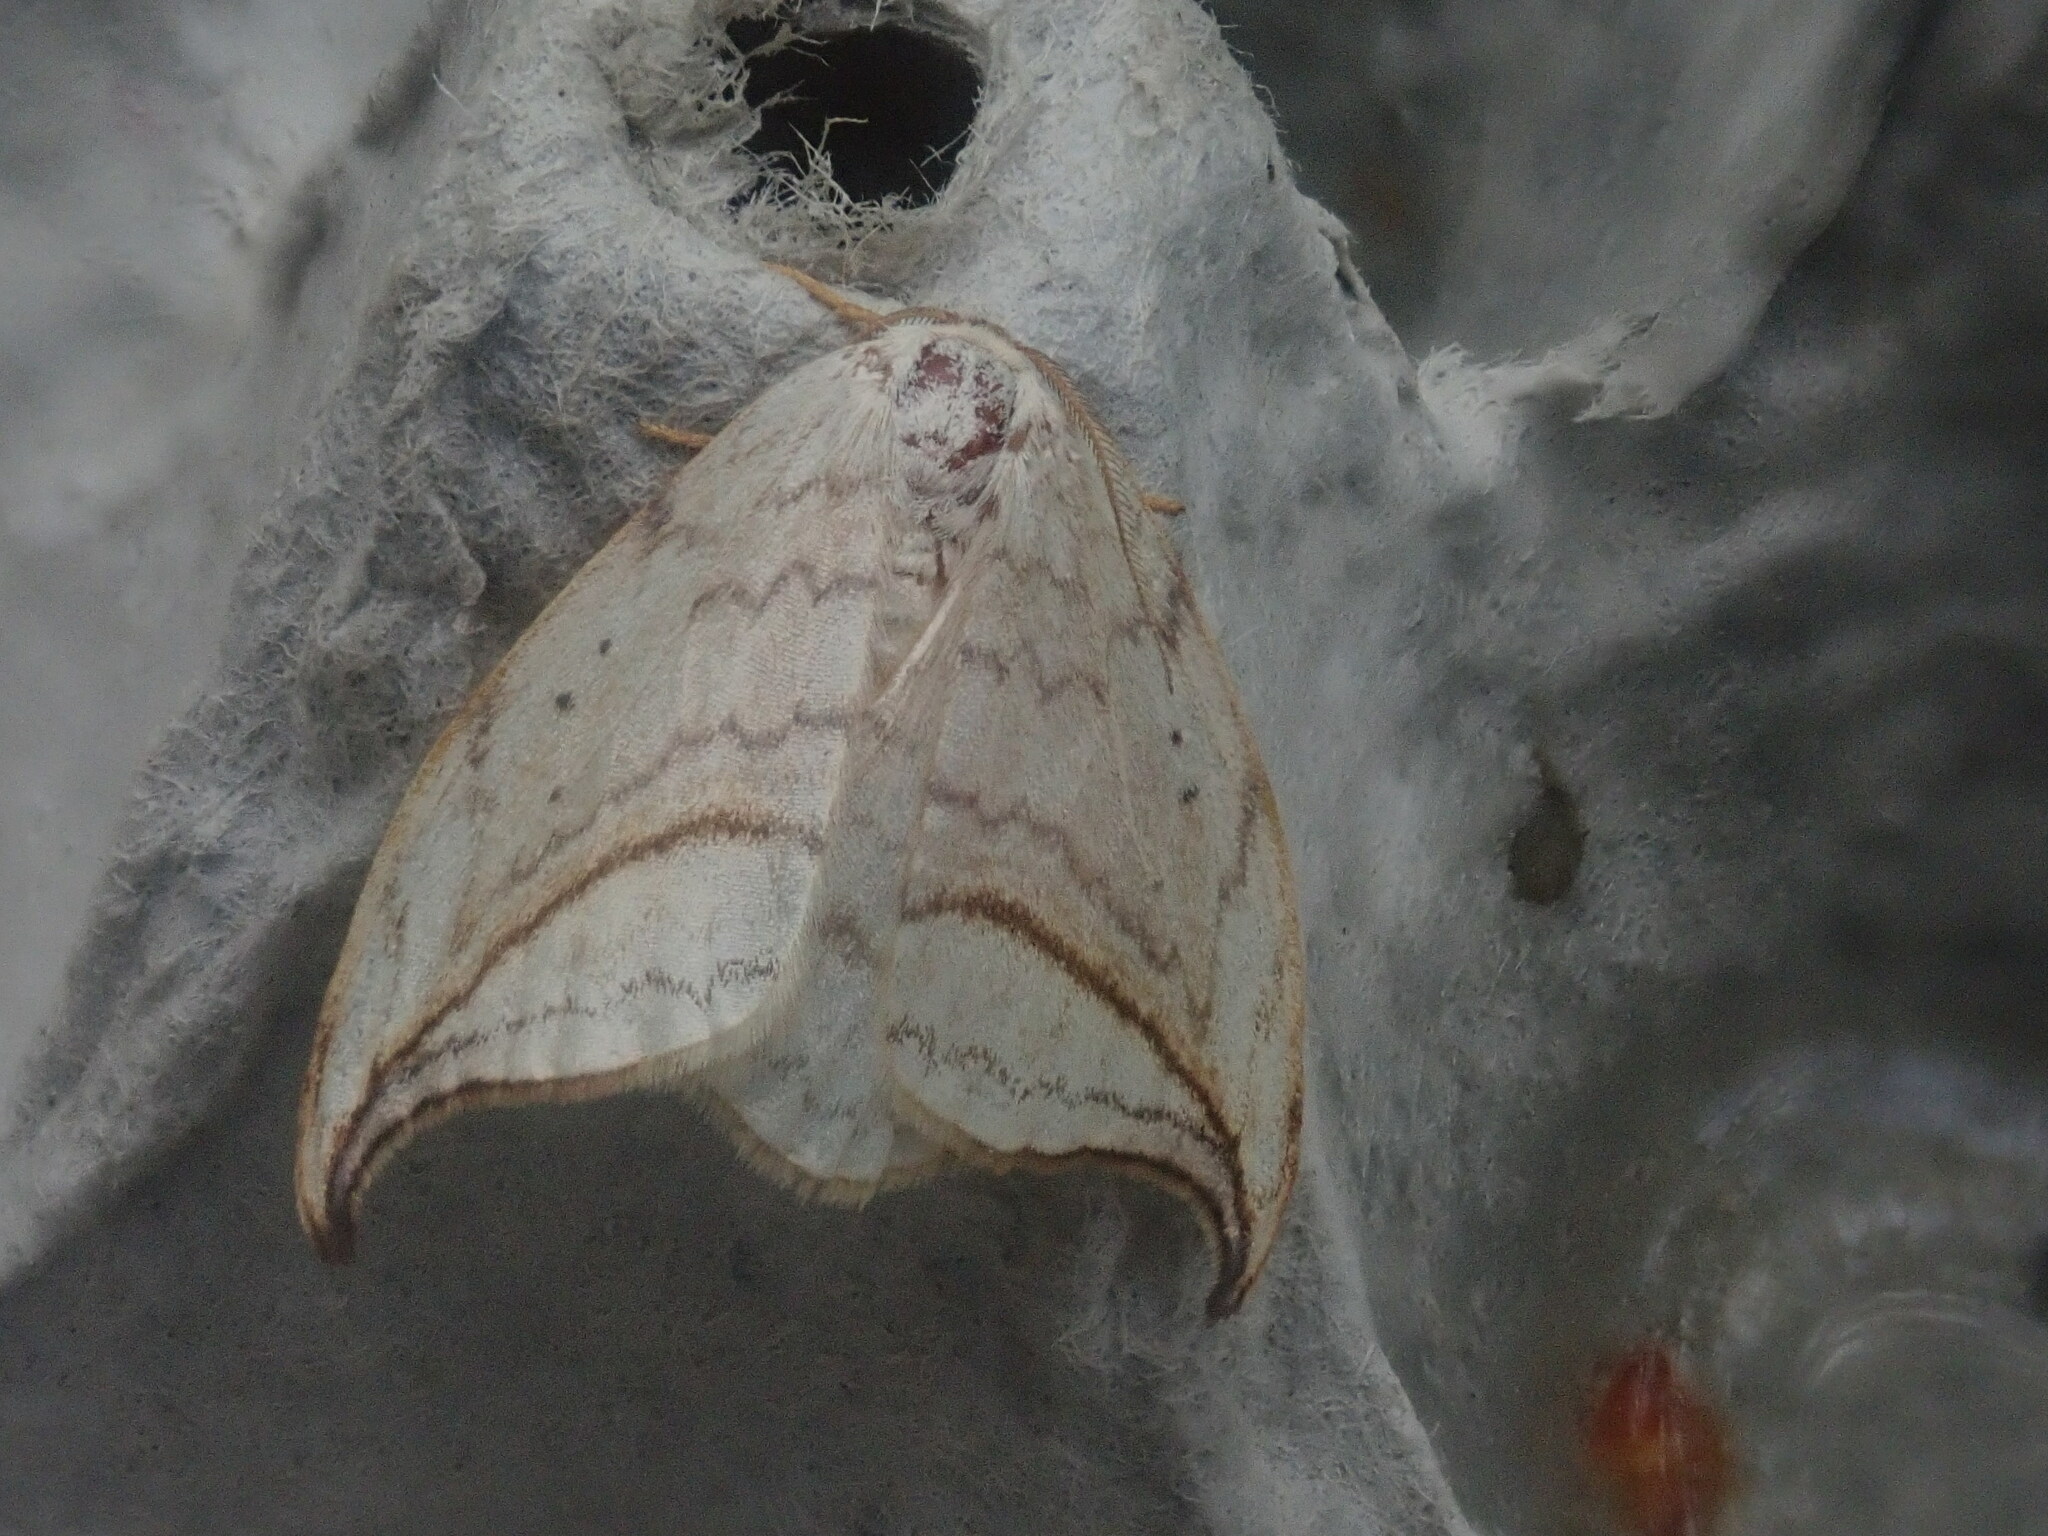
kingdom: Animalia
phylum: Arthropoda
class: Insecta
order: Lepidoptera
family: Drepanidae
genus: Drepana
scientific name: Drepana arcuata
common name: Arched hooktip moth
